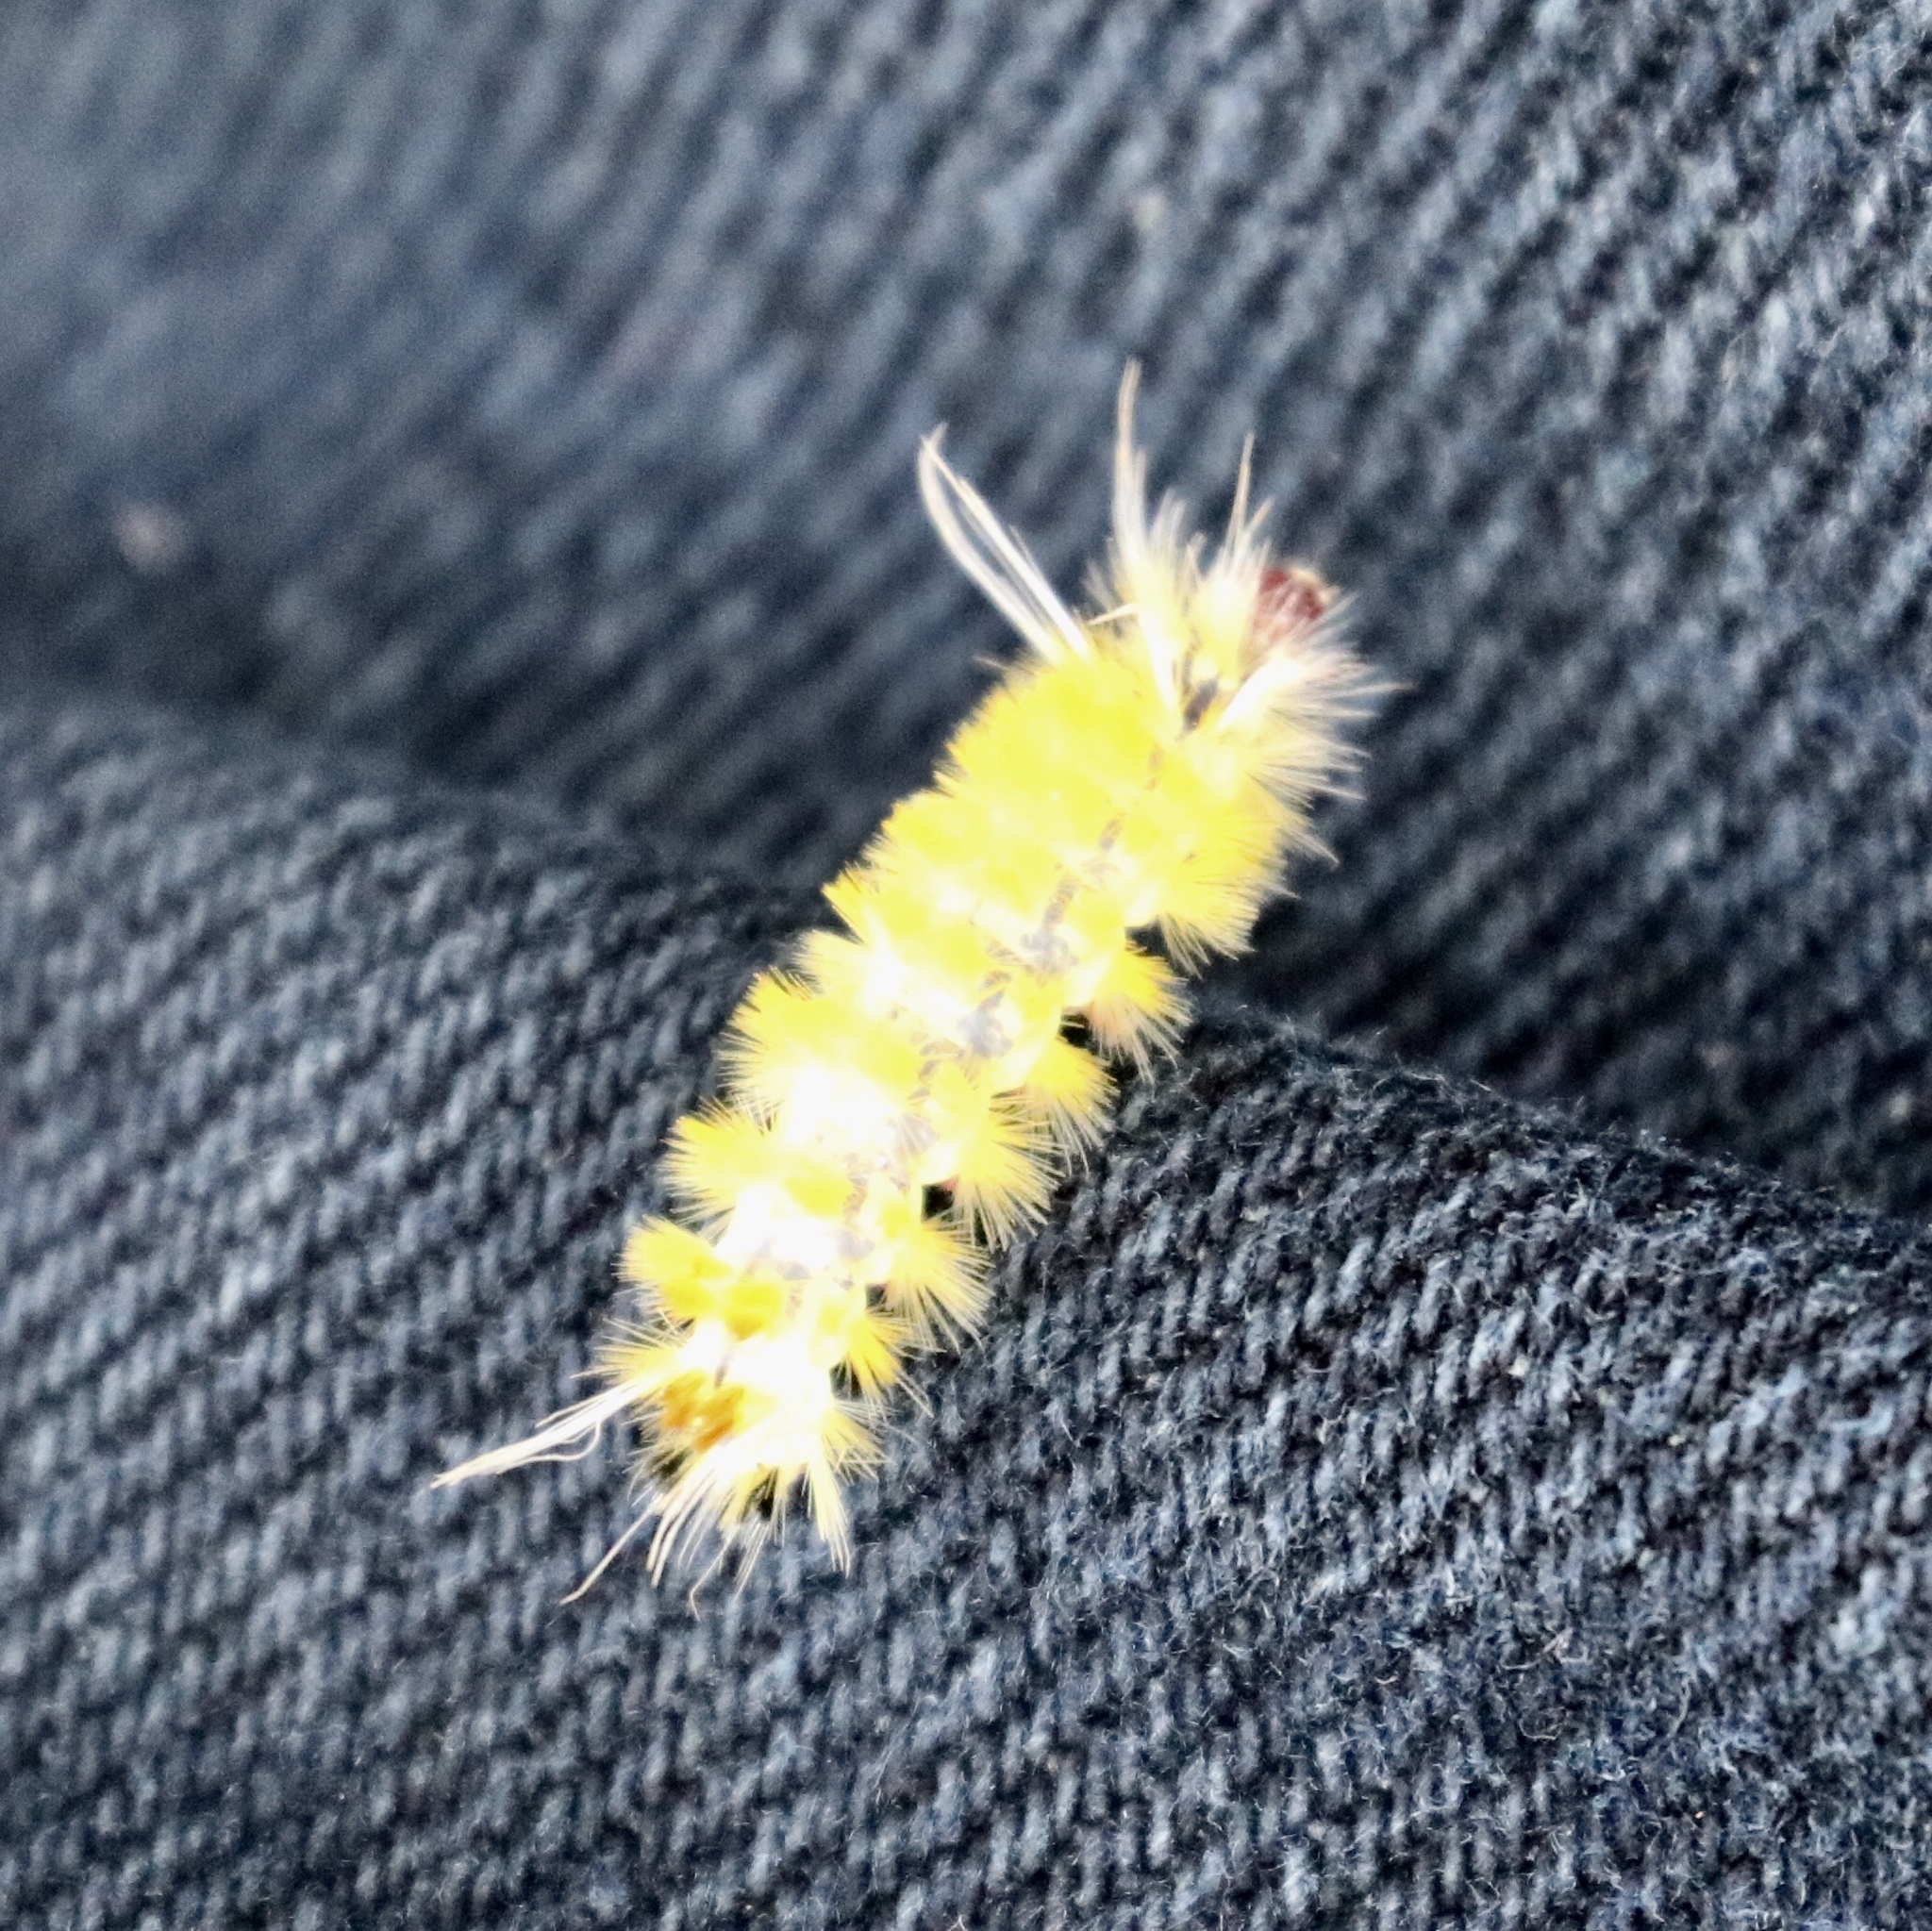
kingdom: Animalia
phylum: Arthropoda
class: Insecta
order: Lepidoptera
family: Erebidae
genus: Lophocampa
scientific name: Lophocampa annulosa
